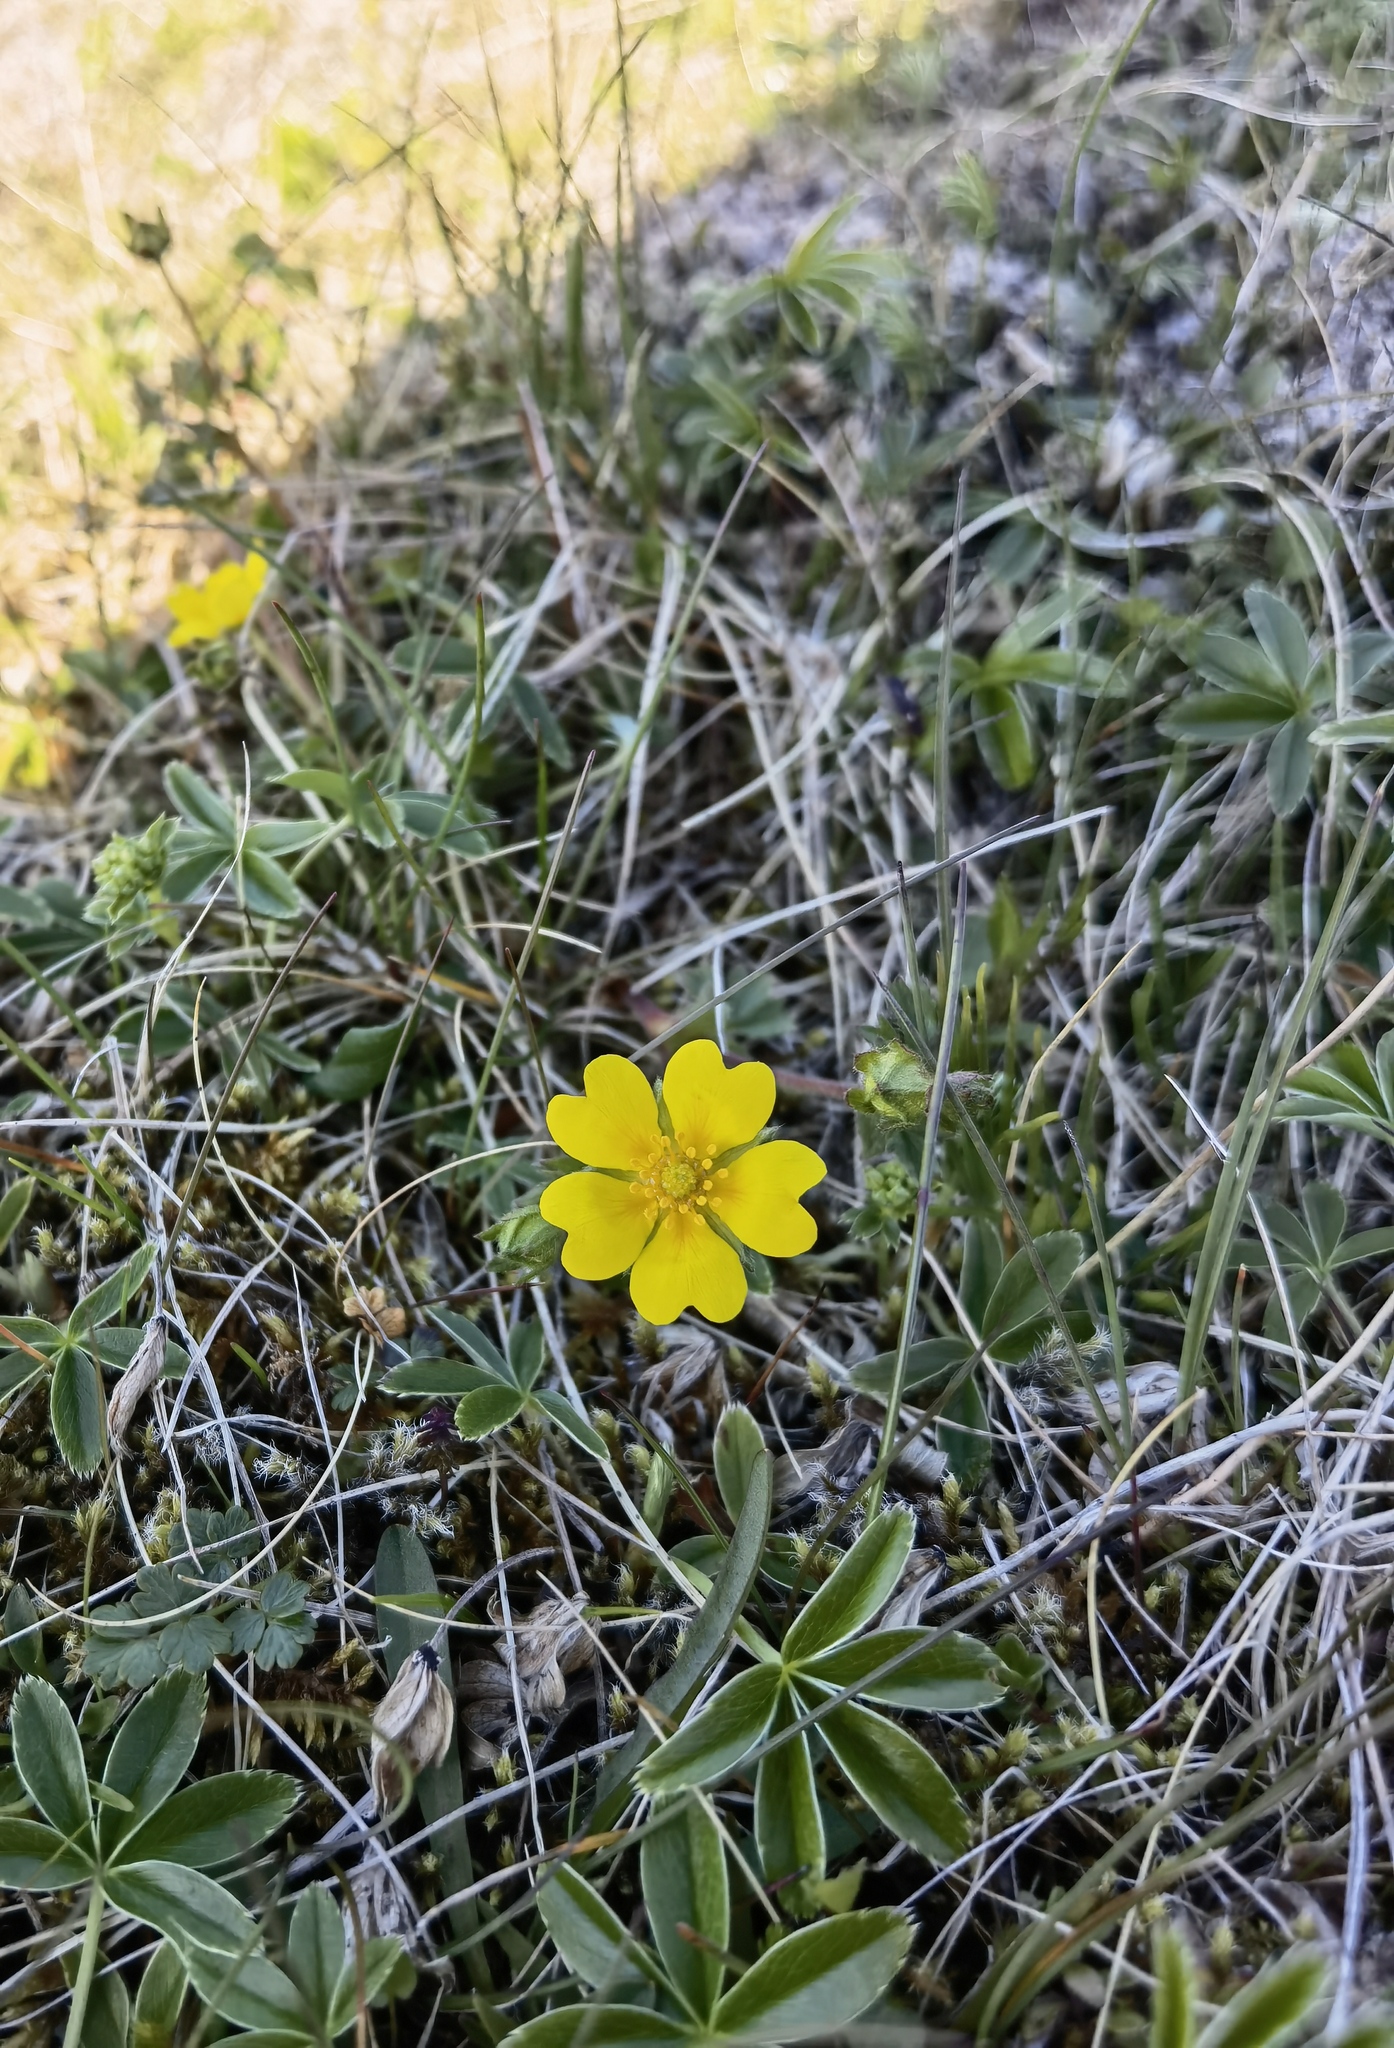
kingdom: Plantae
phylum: Tracheophyta
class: Magnoliopsida
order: Rosales
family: Rosaceae
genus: Potentilla
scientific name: Potentilla crantzii
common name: Alpine cinquefoil
